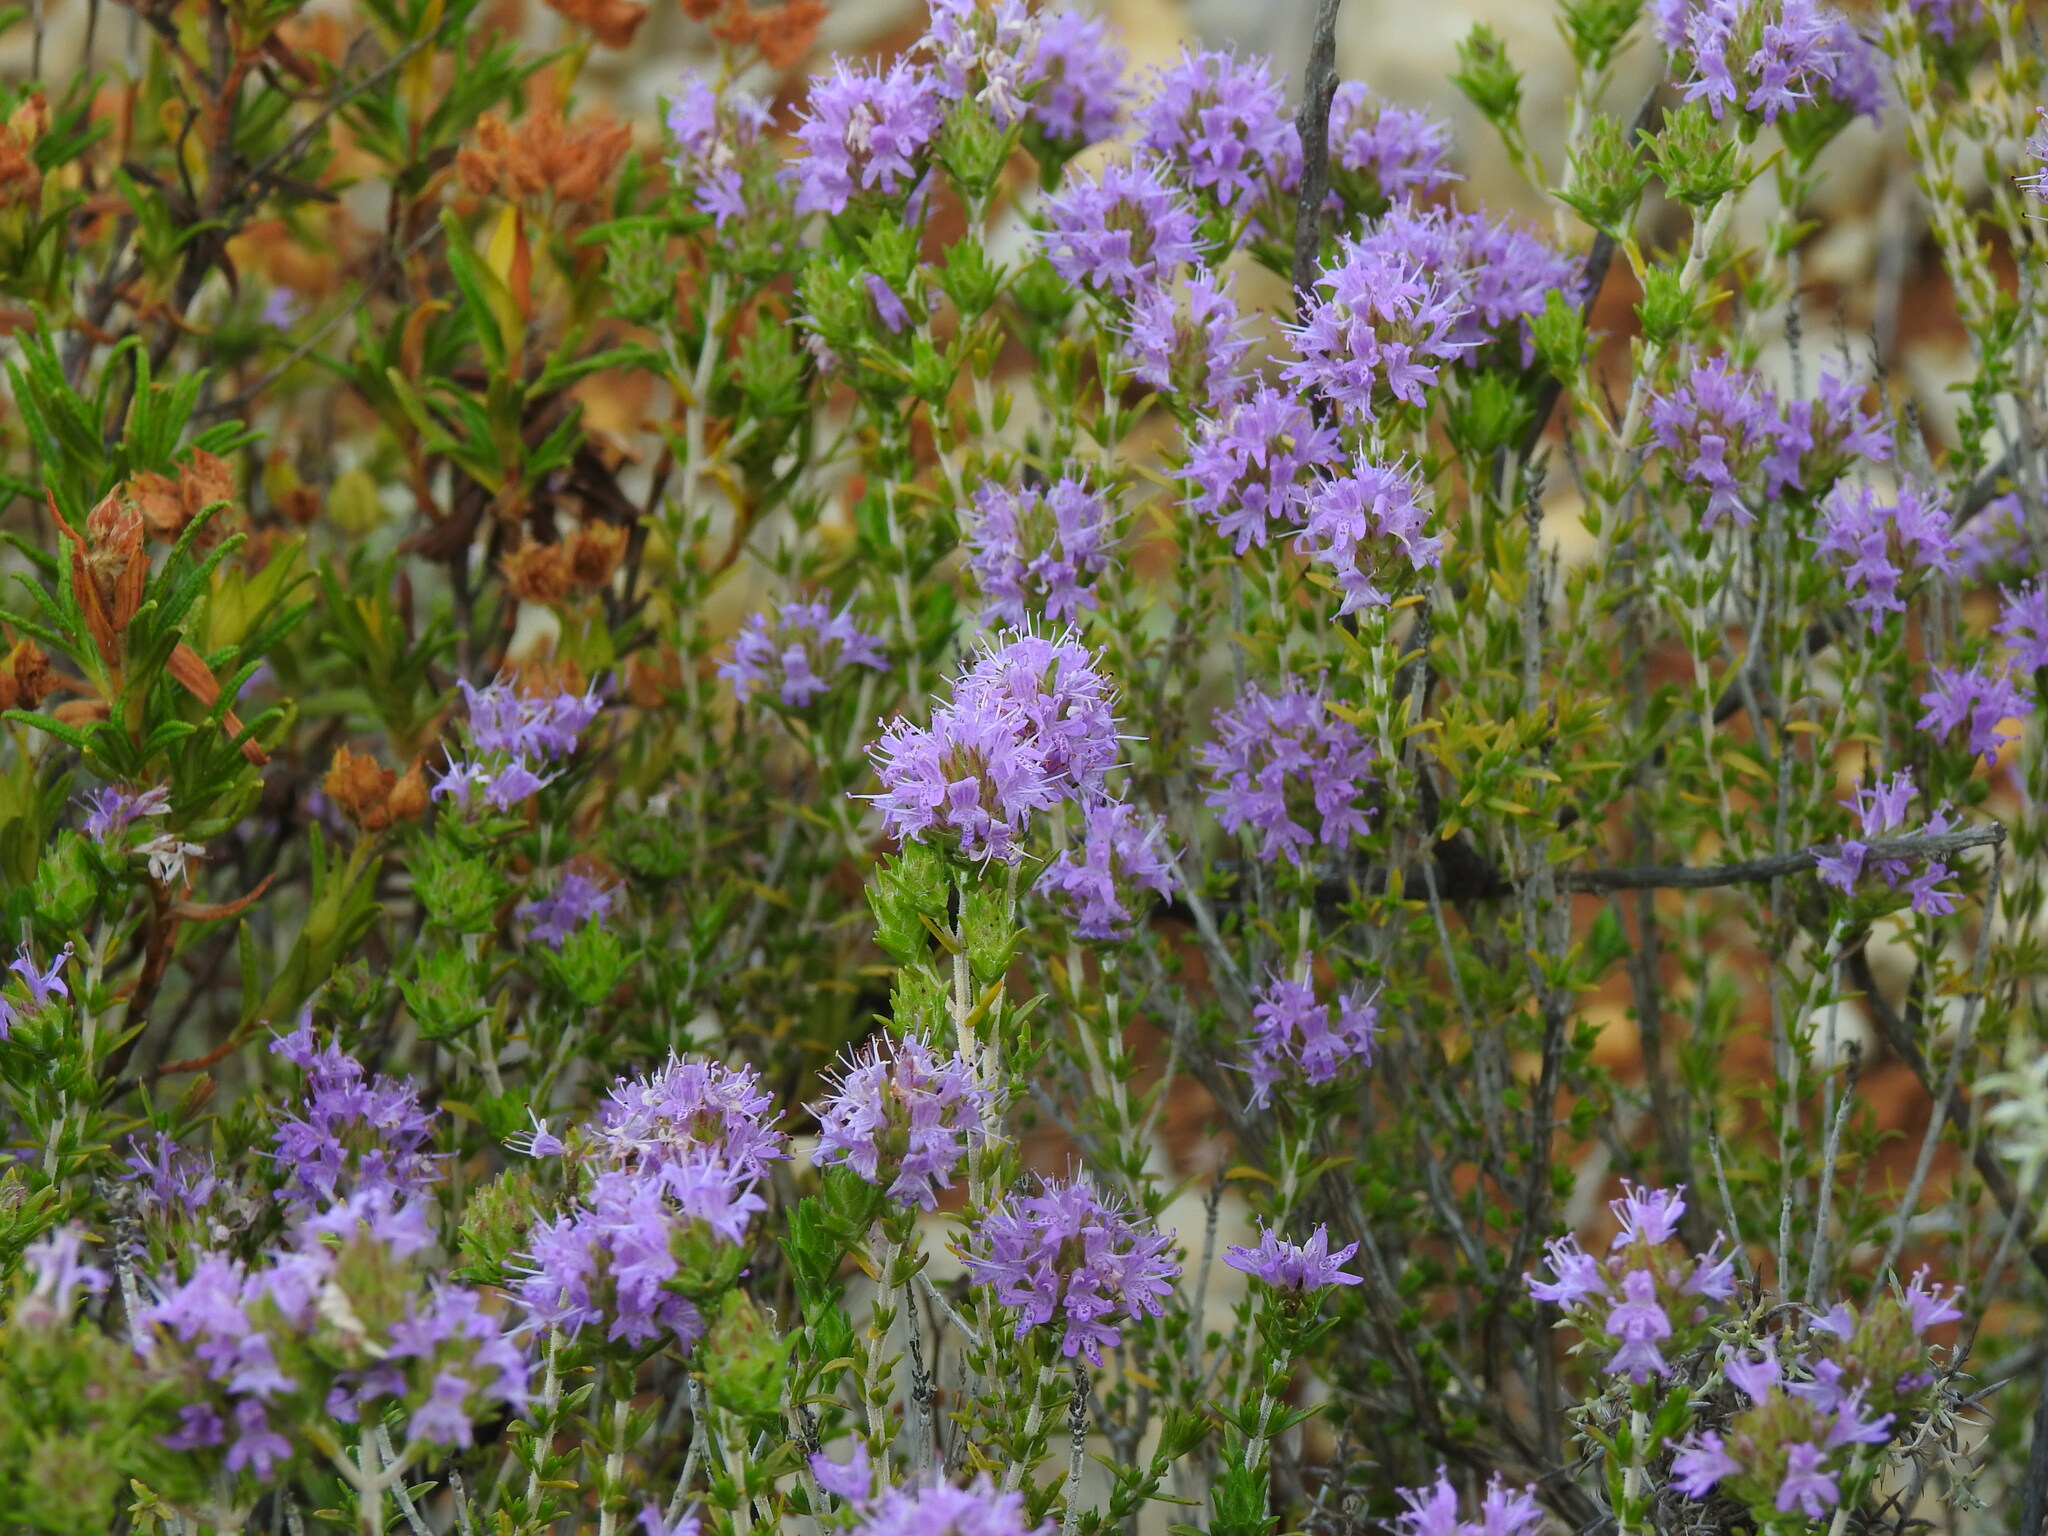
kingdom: Plantae
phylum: Tracheophyta
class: Magnoliopsida
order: Lamiales
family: Lamiaceae
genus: Thymbra
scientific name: Thymbra capitata
